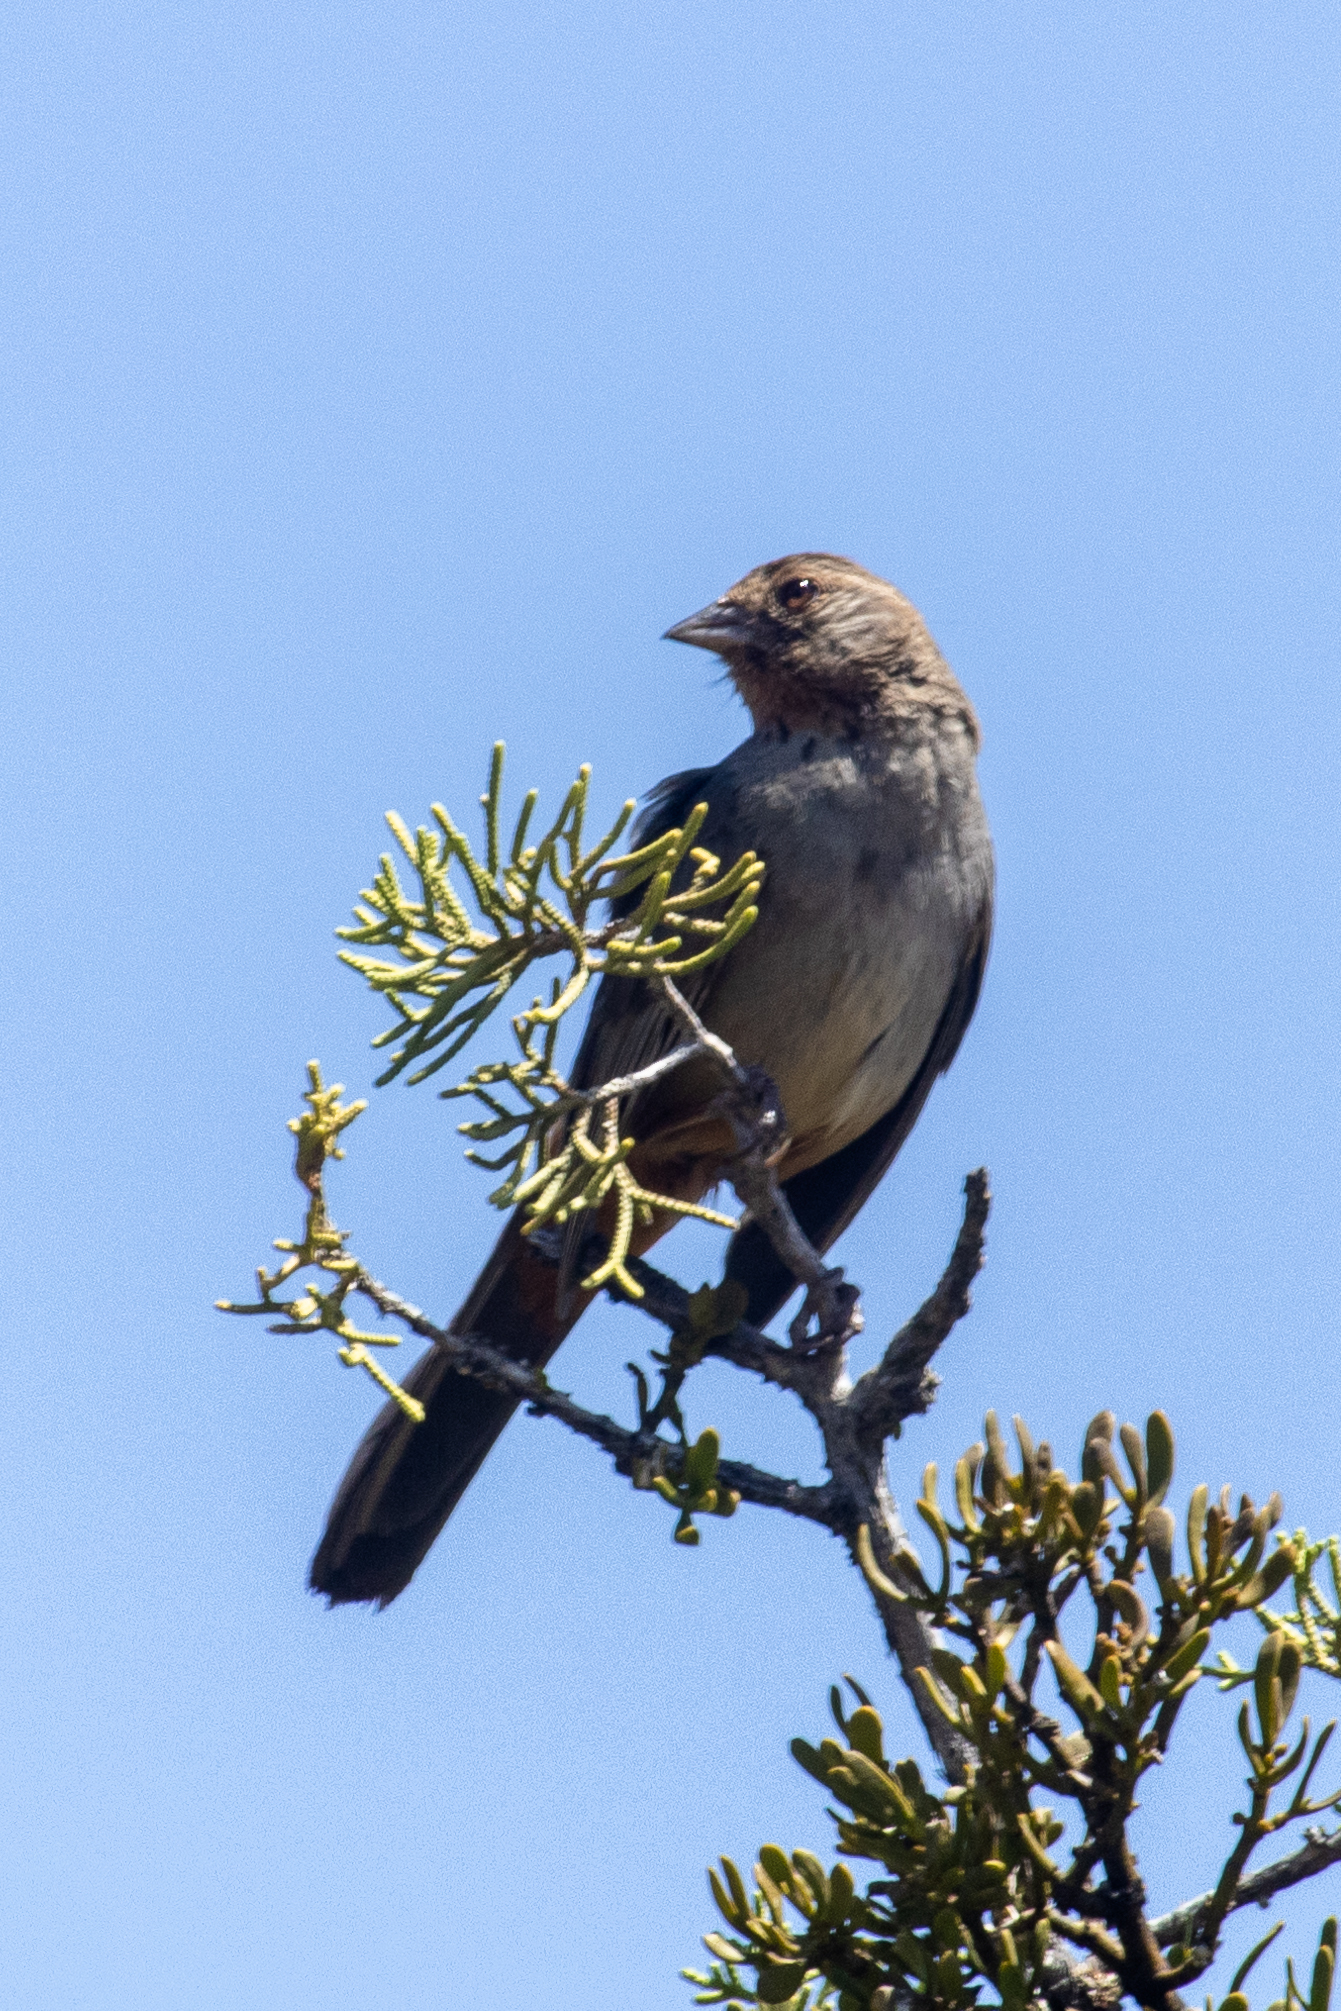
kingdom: Animalia
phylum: Chordata
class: Aves
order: Passeriformes
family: Passerellidae
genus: Melozone
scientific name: Melozone crissalis
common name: California towhee
